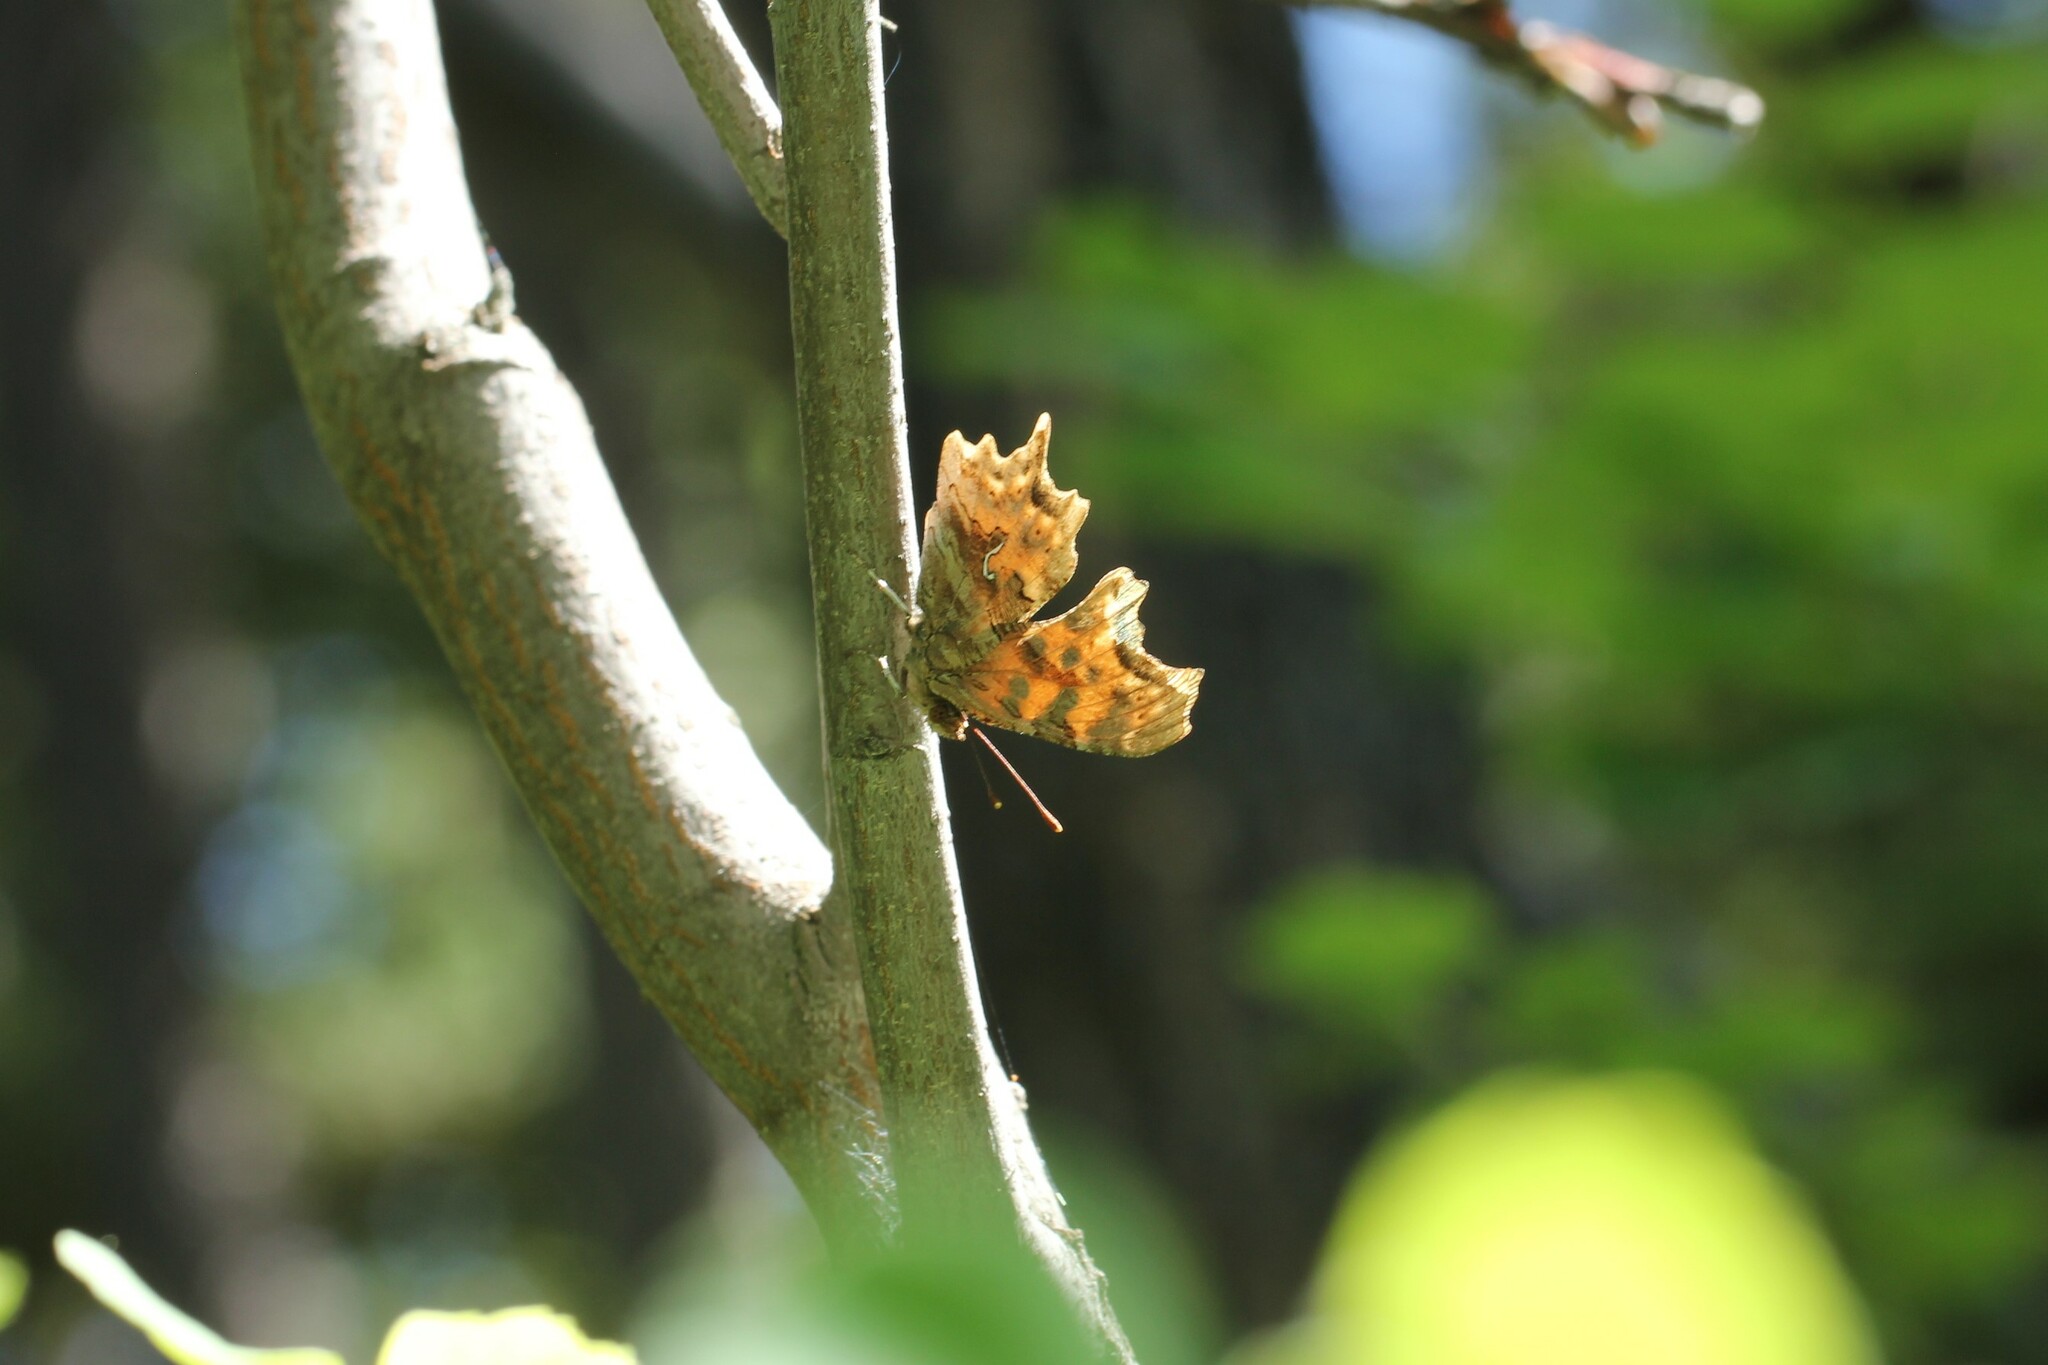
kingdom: Animalia
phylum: Arthropoda
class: Insecta
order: Lepidoptera
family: Nymphalidae
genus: Polygonia
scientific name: Polygonia satyrus
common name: Satyr angle wing
